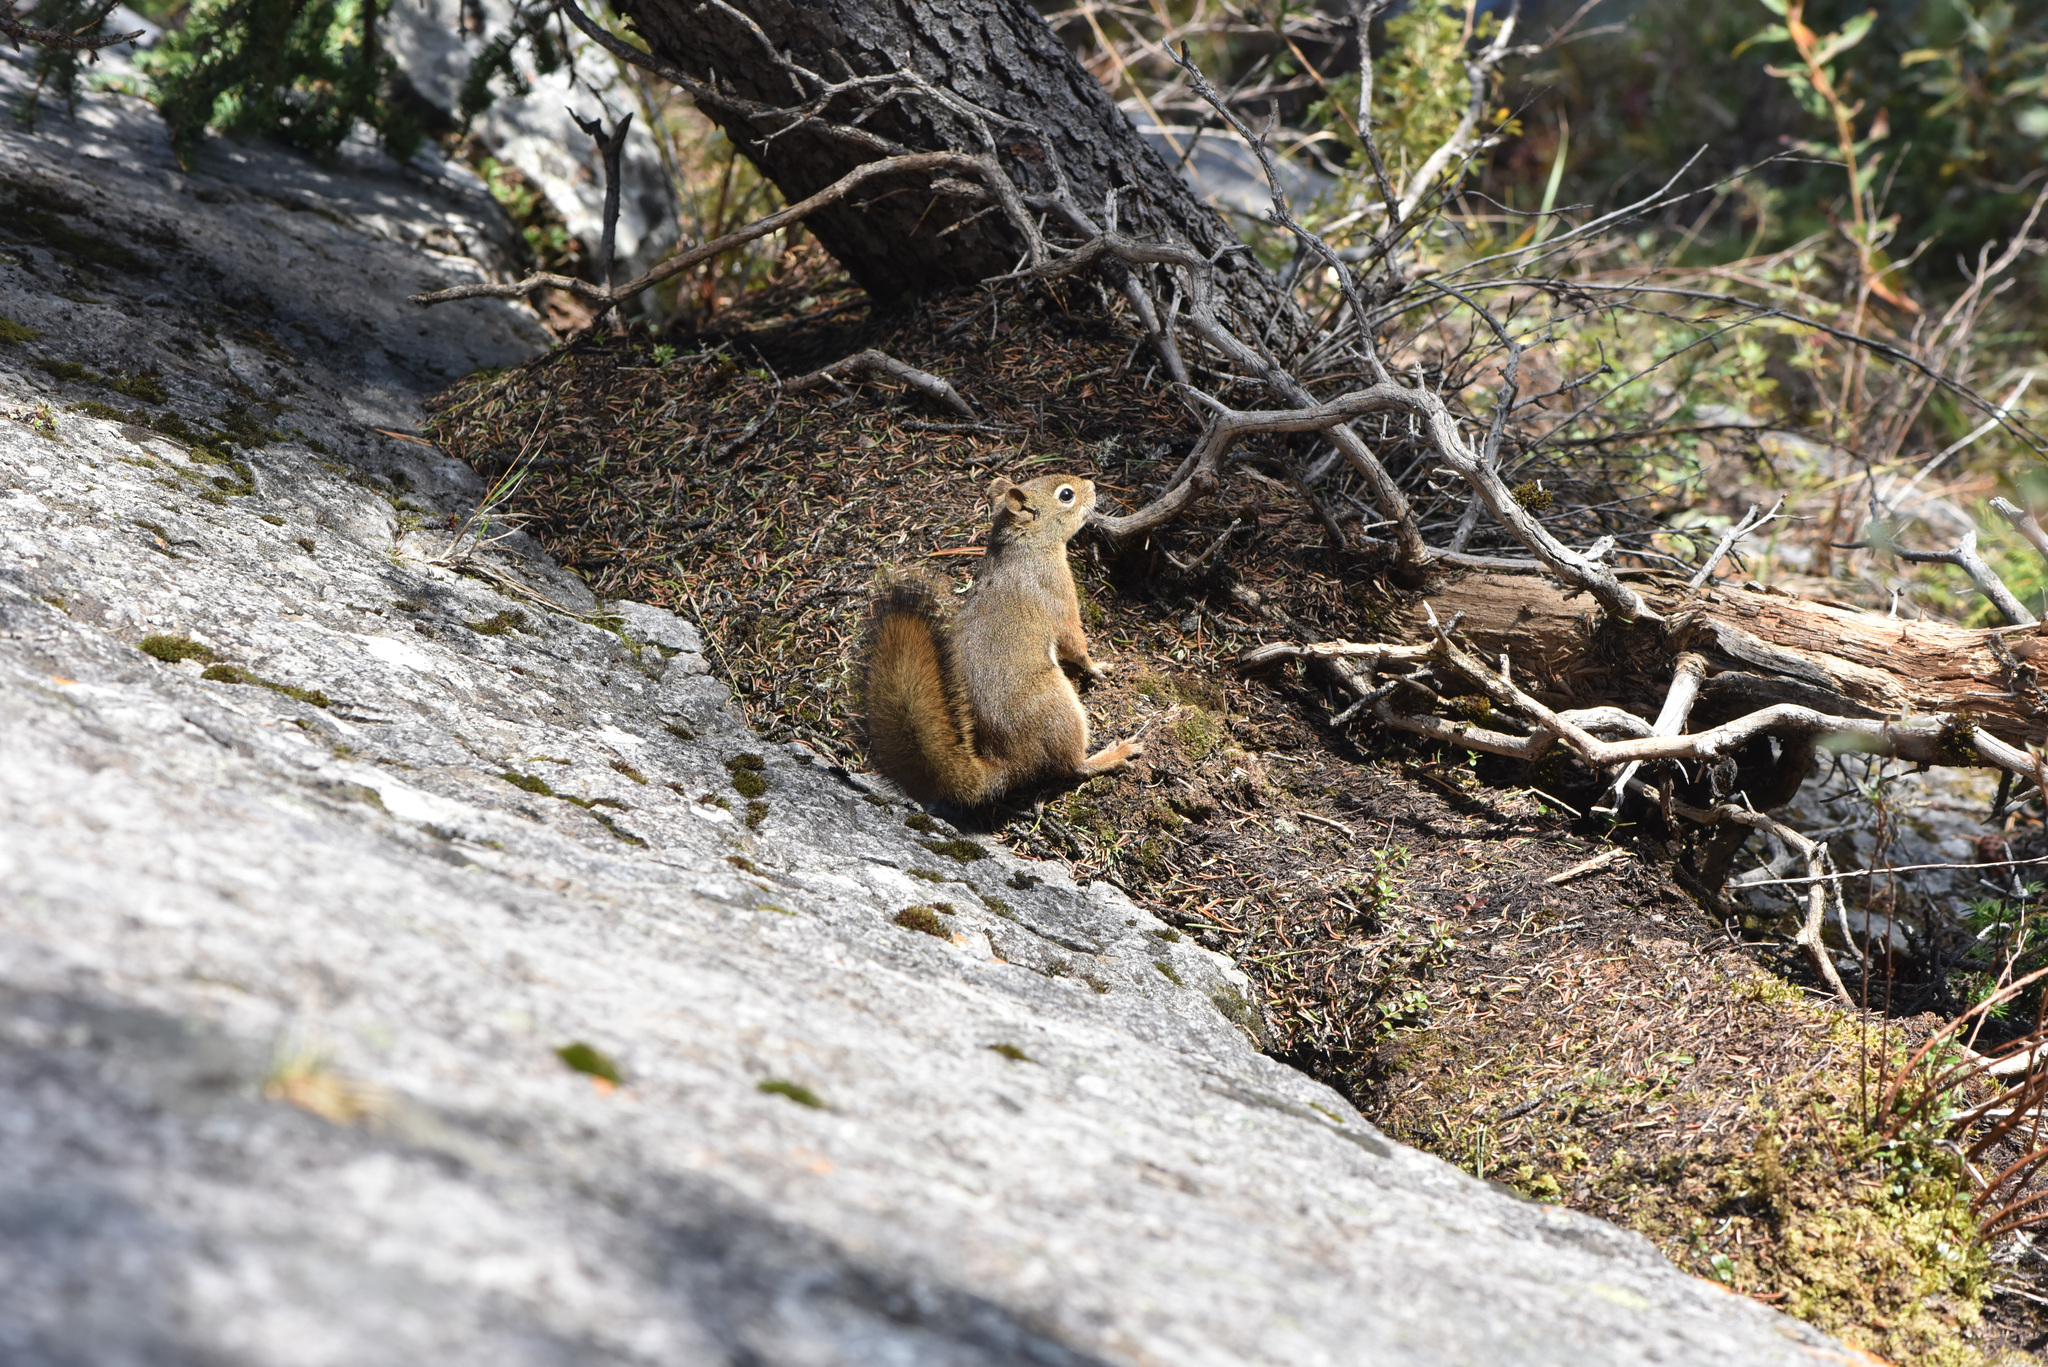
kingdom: Animalia
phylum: Chordata
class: Mammalia
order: Rodentia
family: Sciuridae
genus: Tamiasciurus
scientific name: Tamiasciurus hudsonicus
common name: Red squirrel
